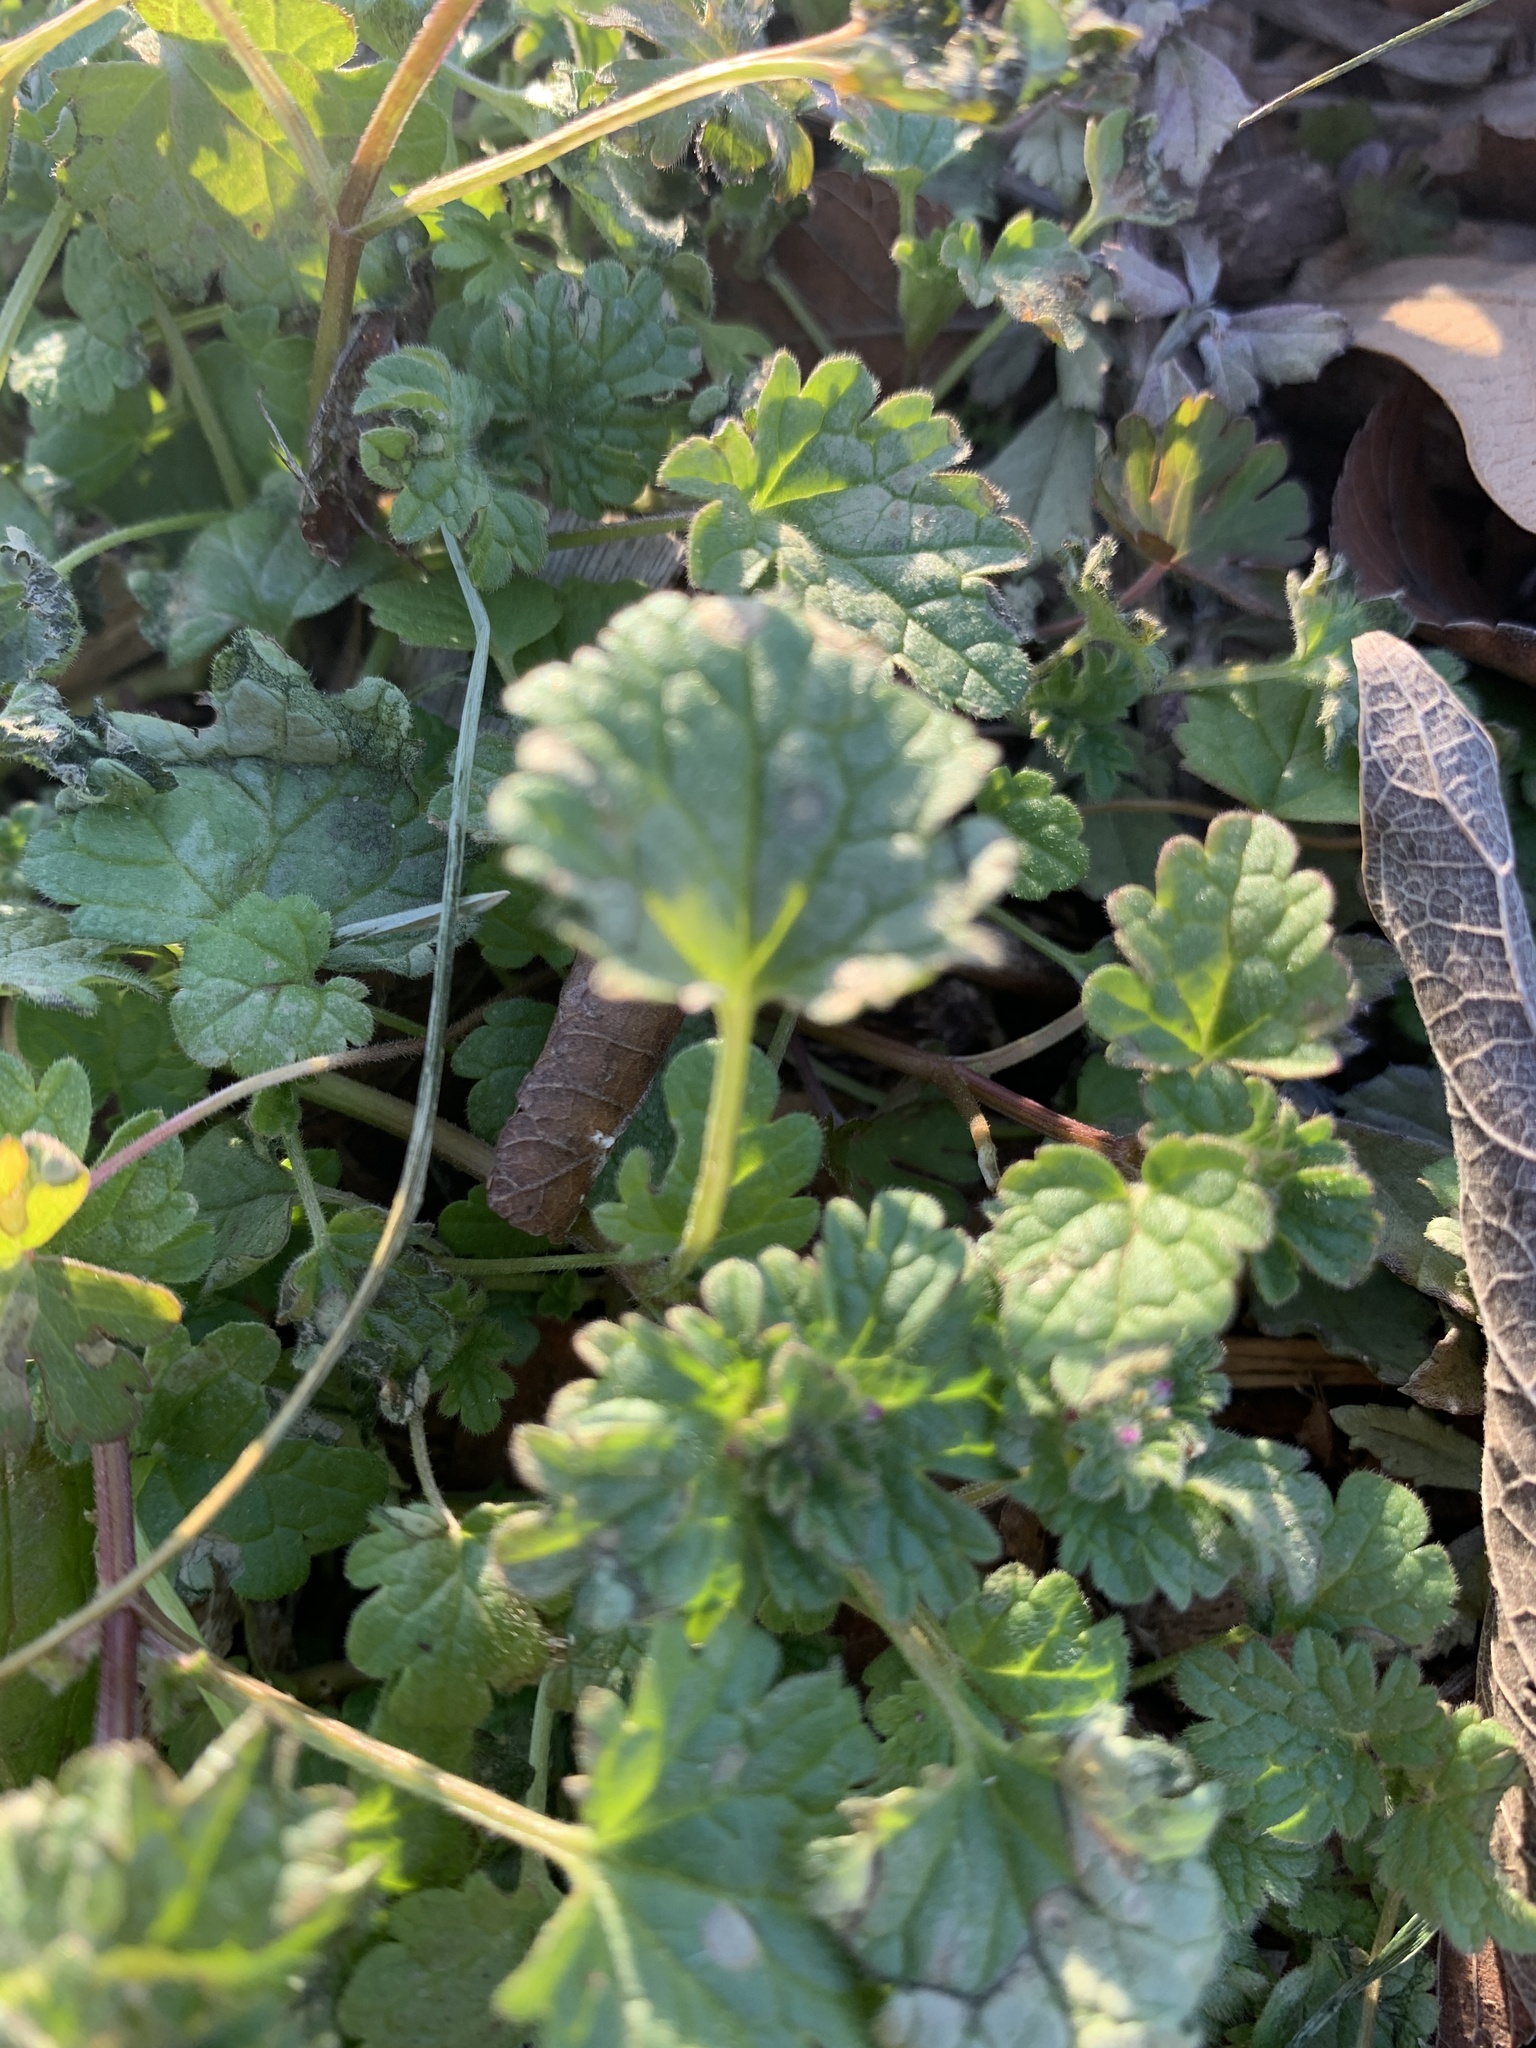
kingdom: Plantae
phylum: Tracheophyta
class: Magnoliopsida
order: Lamiales
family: Lamiaceae
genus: Lamium
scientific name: Lamium amplexicaule
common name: Henbit dead-nettle
